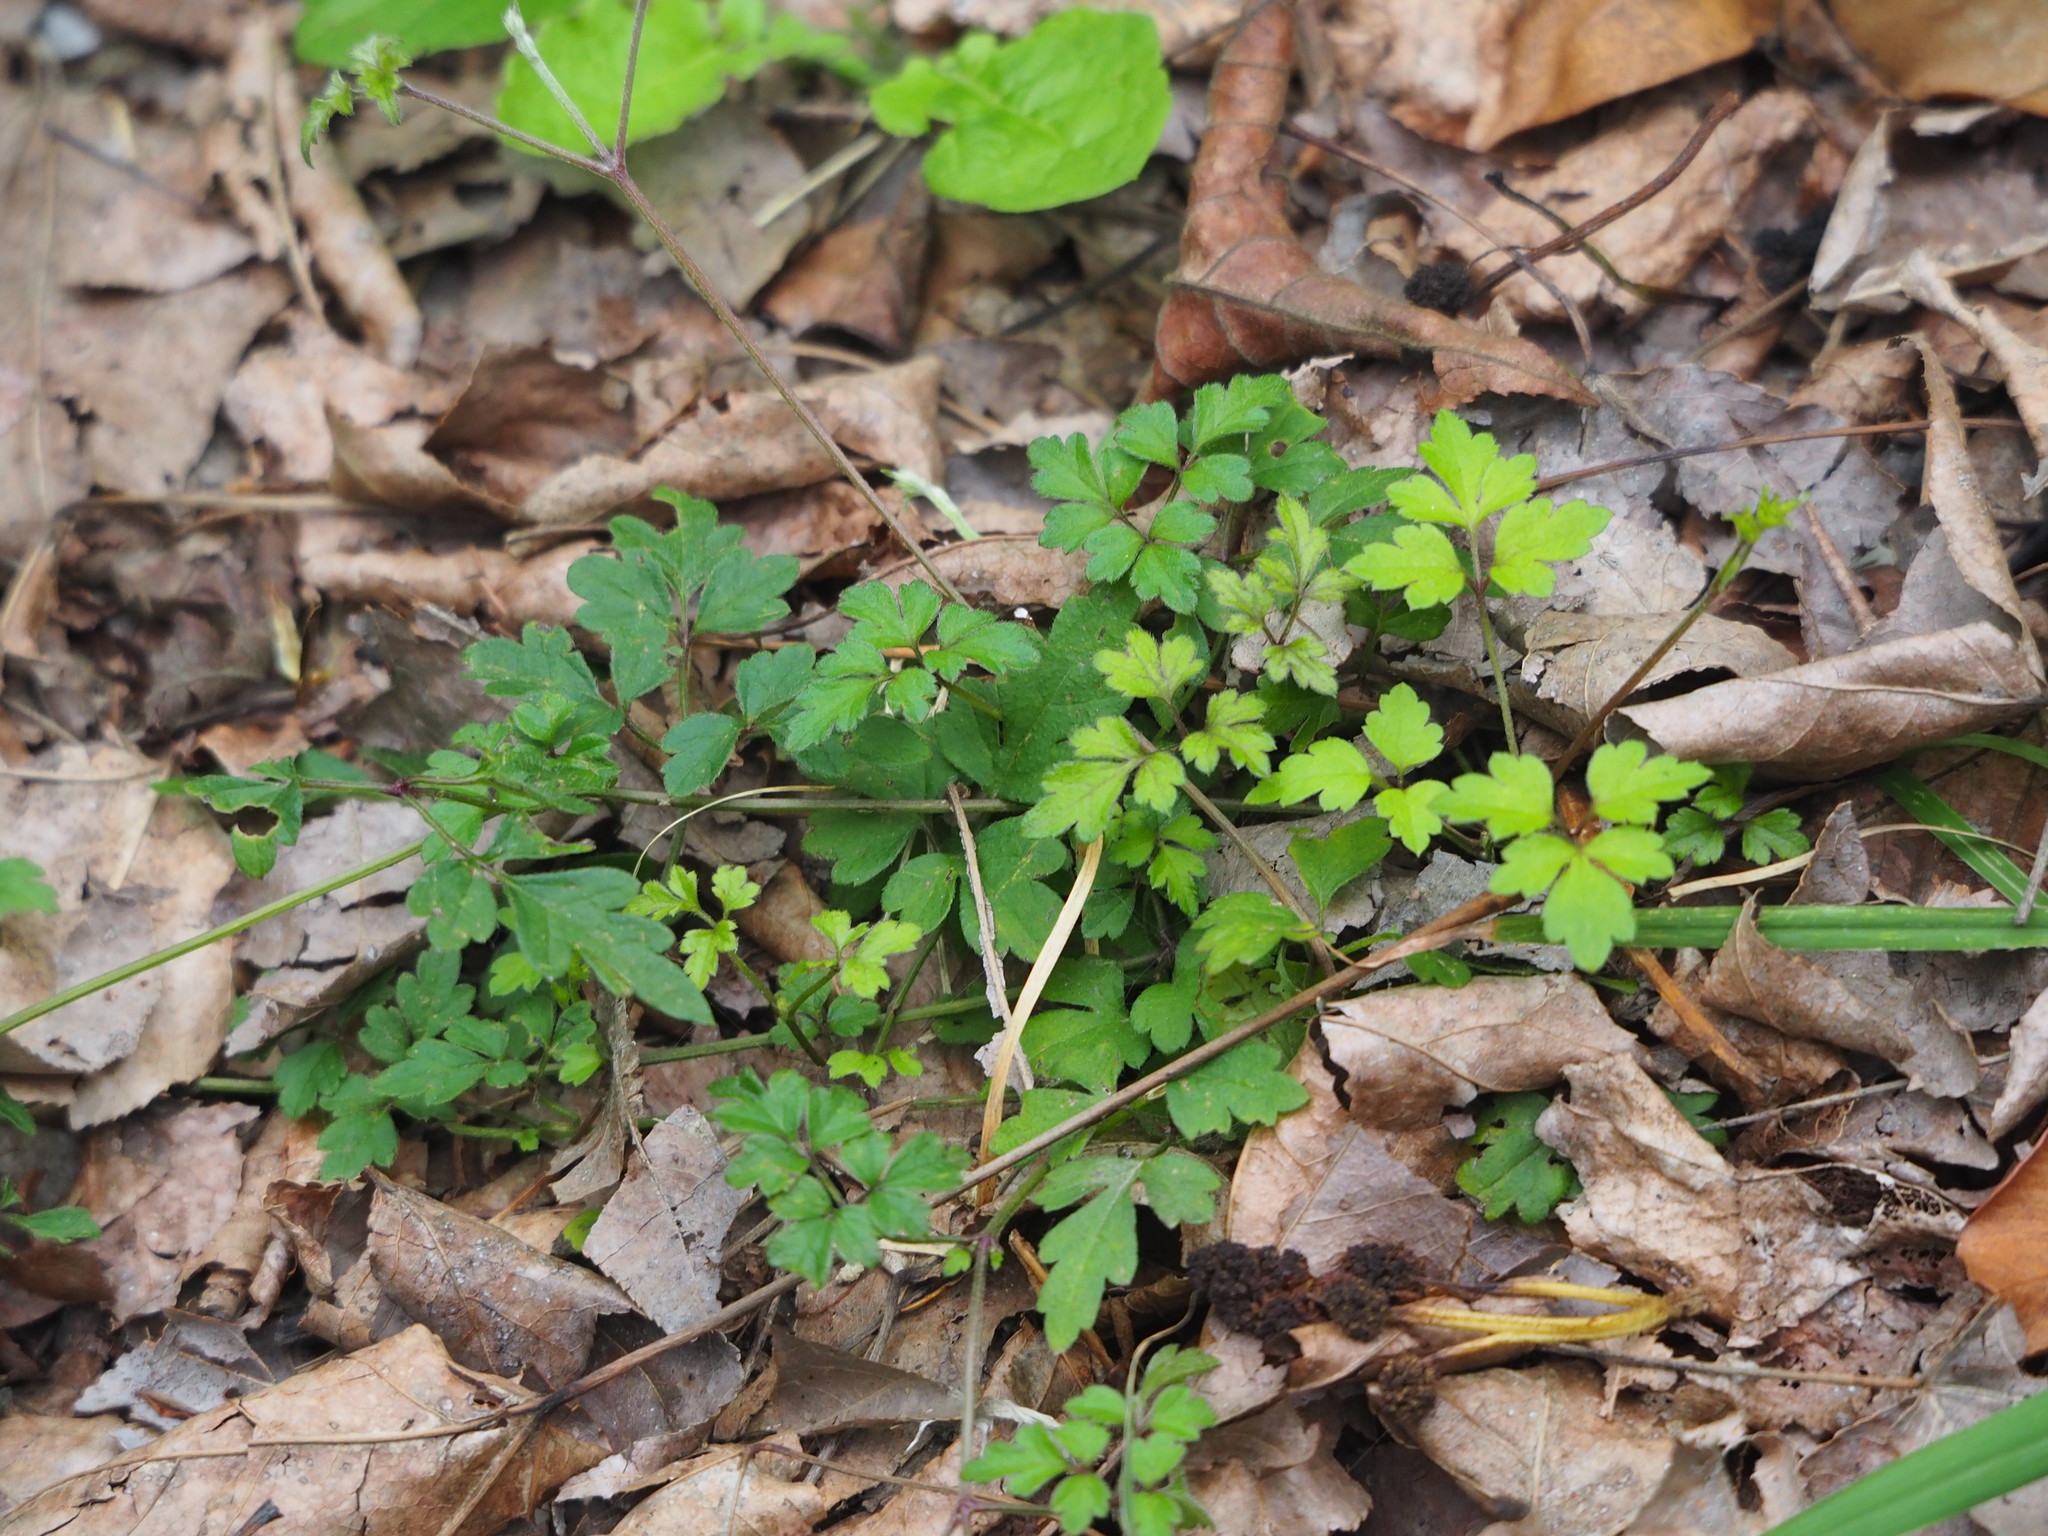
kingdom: Plantae
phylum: Tracheophyta
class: Magnoliopsida
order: Ranunculales
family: Ranunculaceae
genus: Clematis
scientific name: Clematis grata
